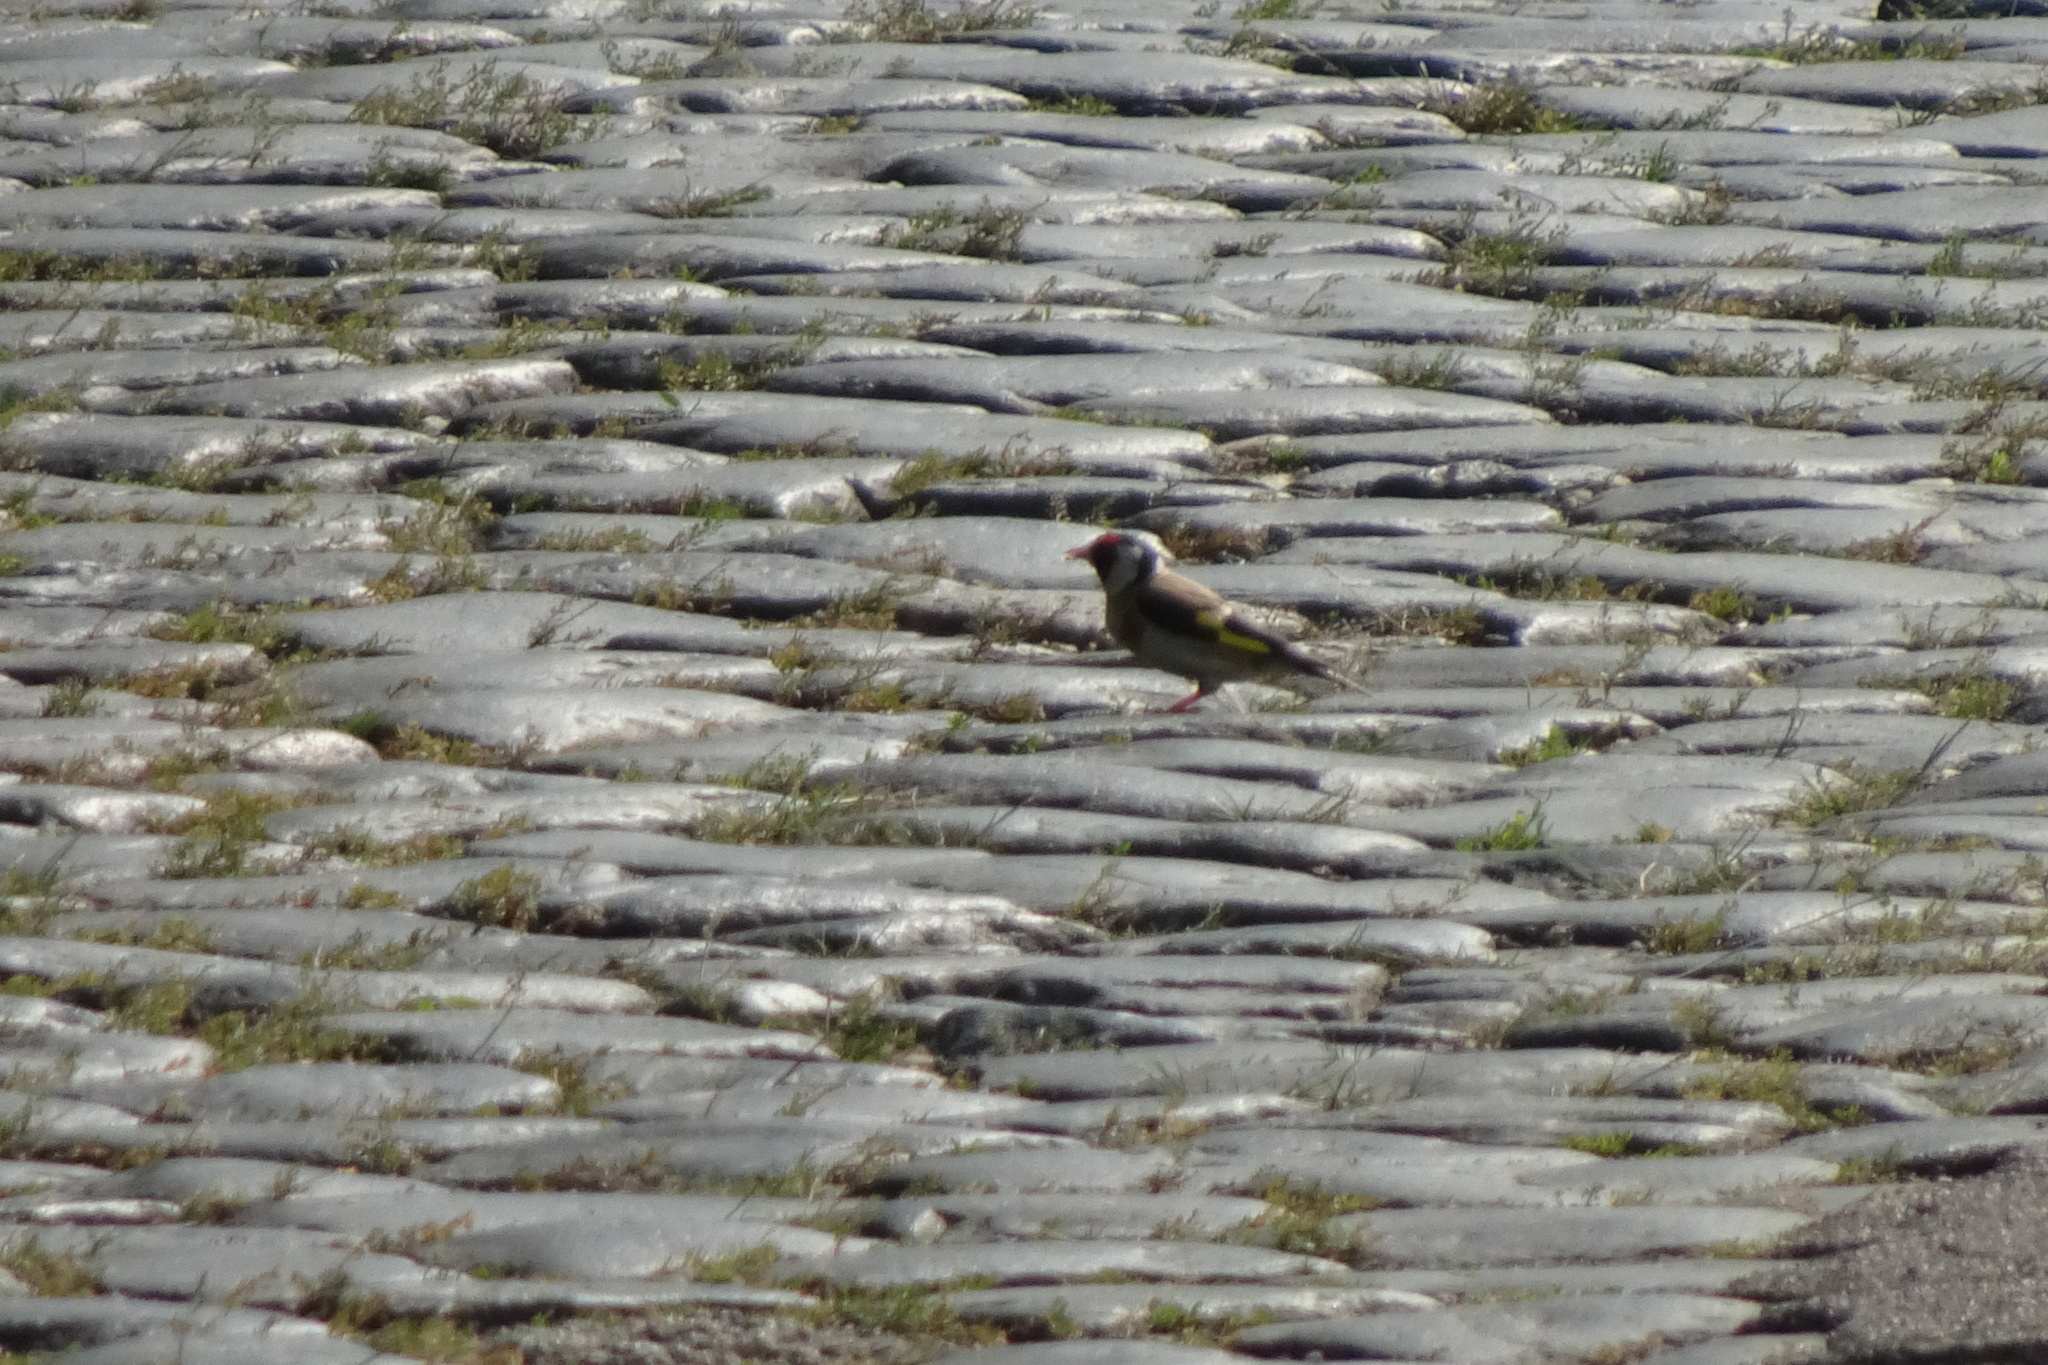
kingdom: Animalia
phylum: Chordata
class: Aves
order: Passeriformes
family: Fringillidae
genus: Carduelis
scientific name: Carduelis carduelis
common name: European goldfinch
